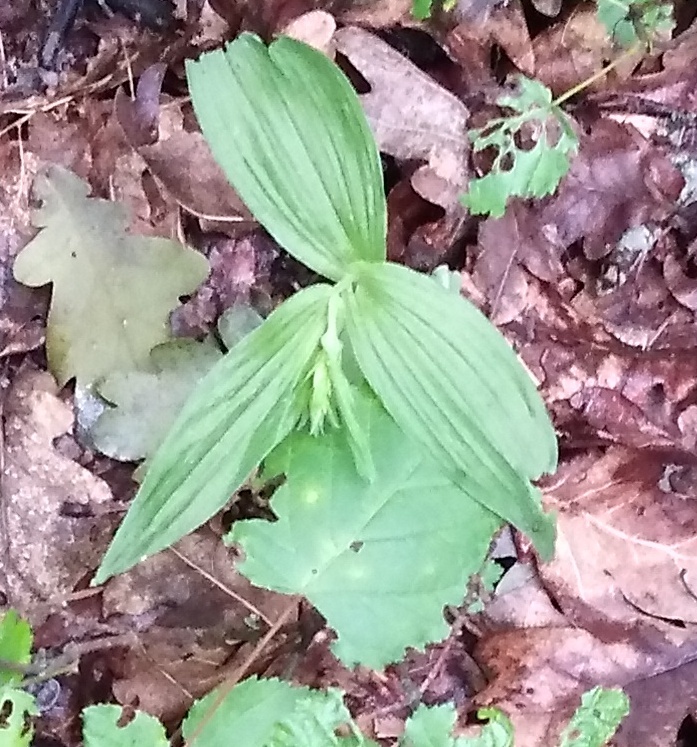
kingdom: Plantae
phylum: Tracheophyta
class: Liliopsida
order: Asparagales
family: Orchidaceae
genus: Epipactis
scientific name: Epipactis helleborine
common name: Broad-leaved helleborine
